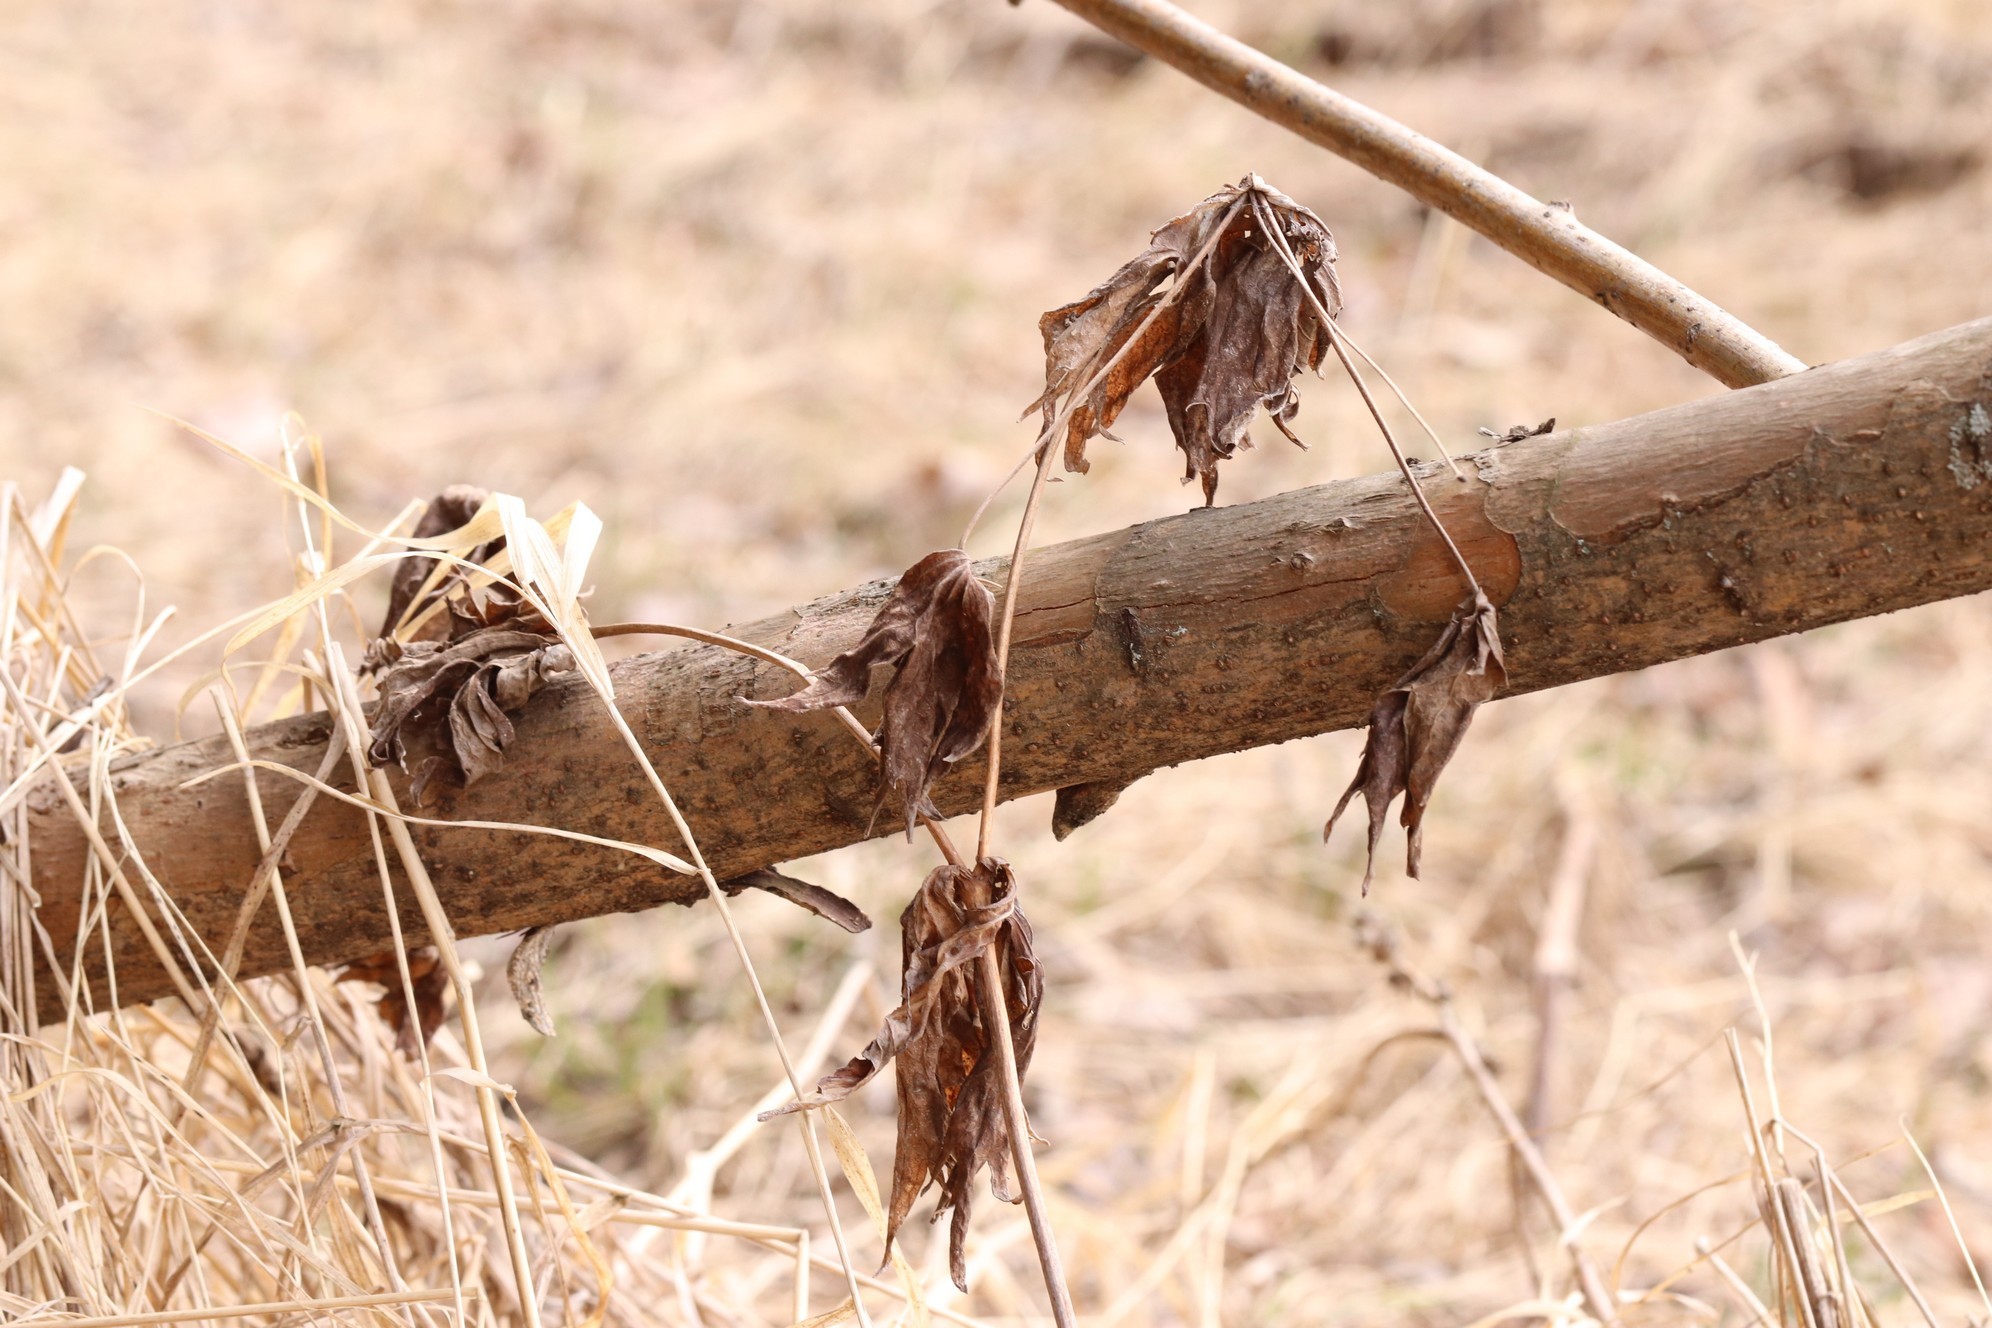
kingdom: Plantae
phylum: Tracheophyta
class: Magnoliopsida
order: Ranunculales
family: Ranunculaceae
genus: Anemonastrum
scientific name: Anemonastrum dichotomum
